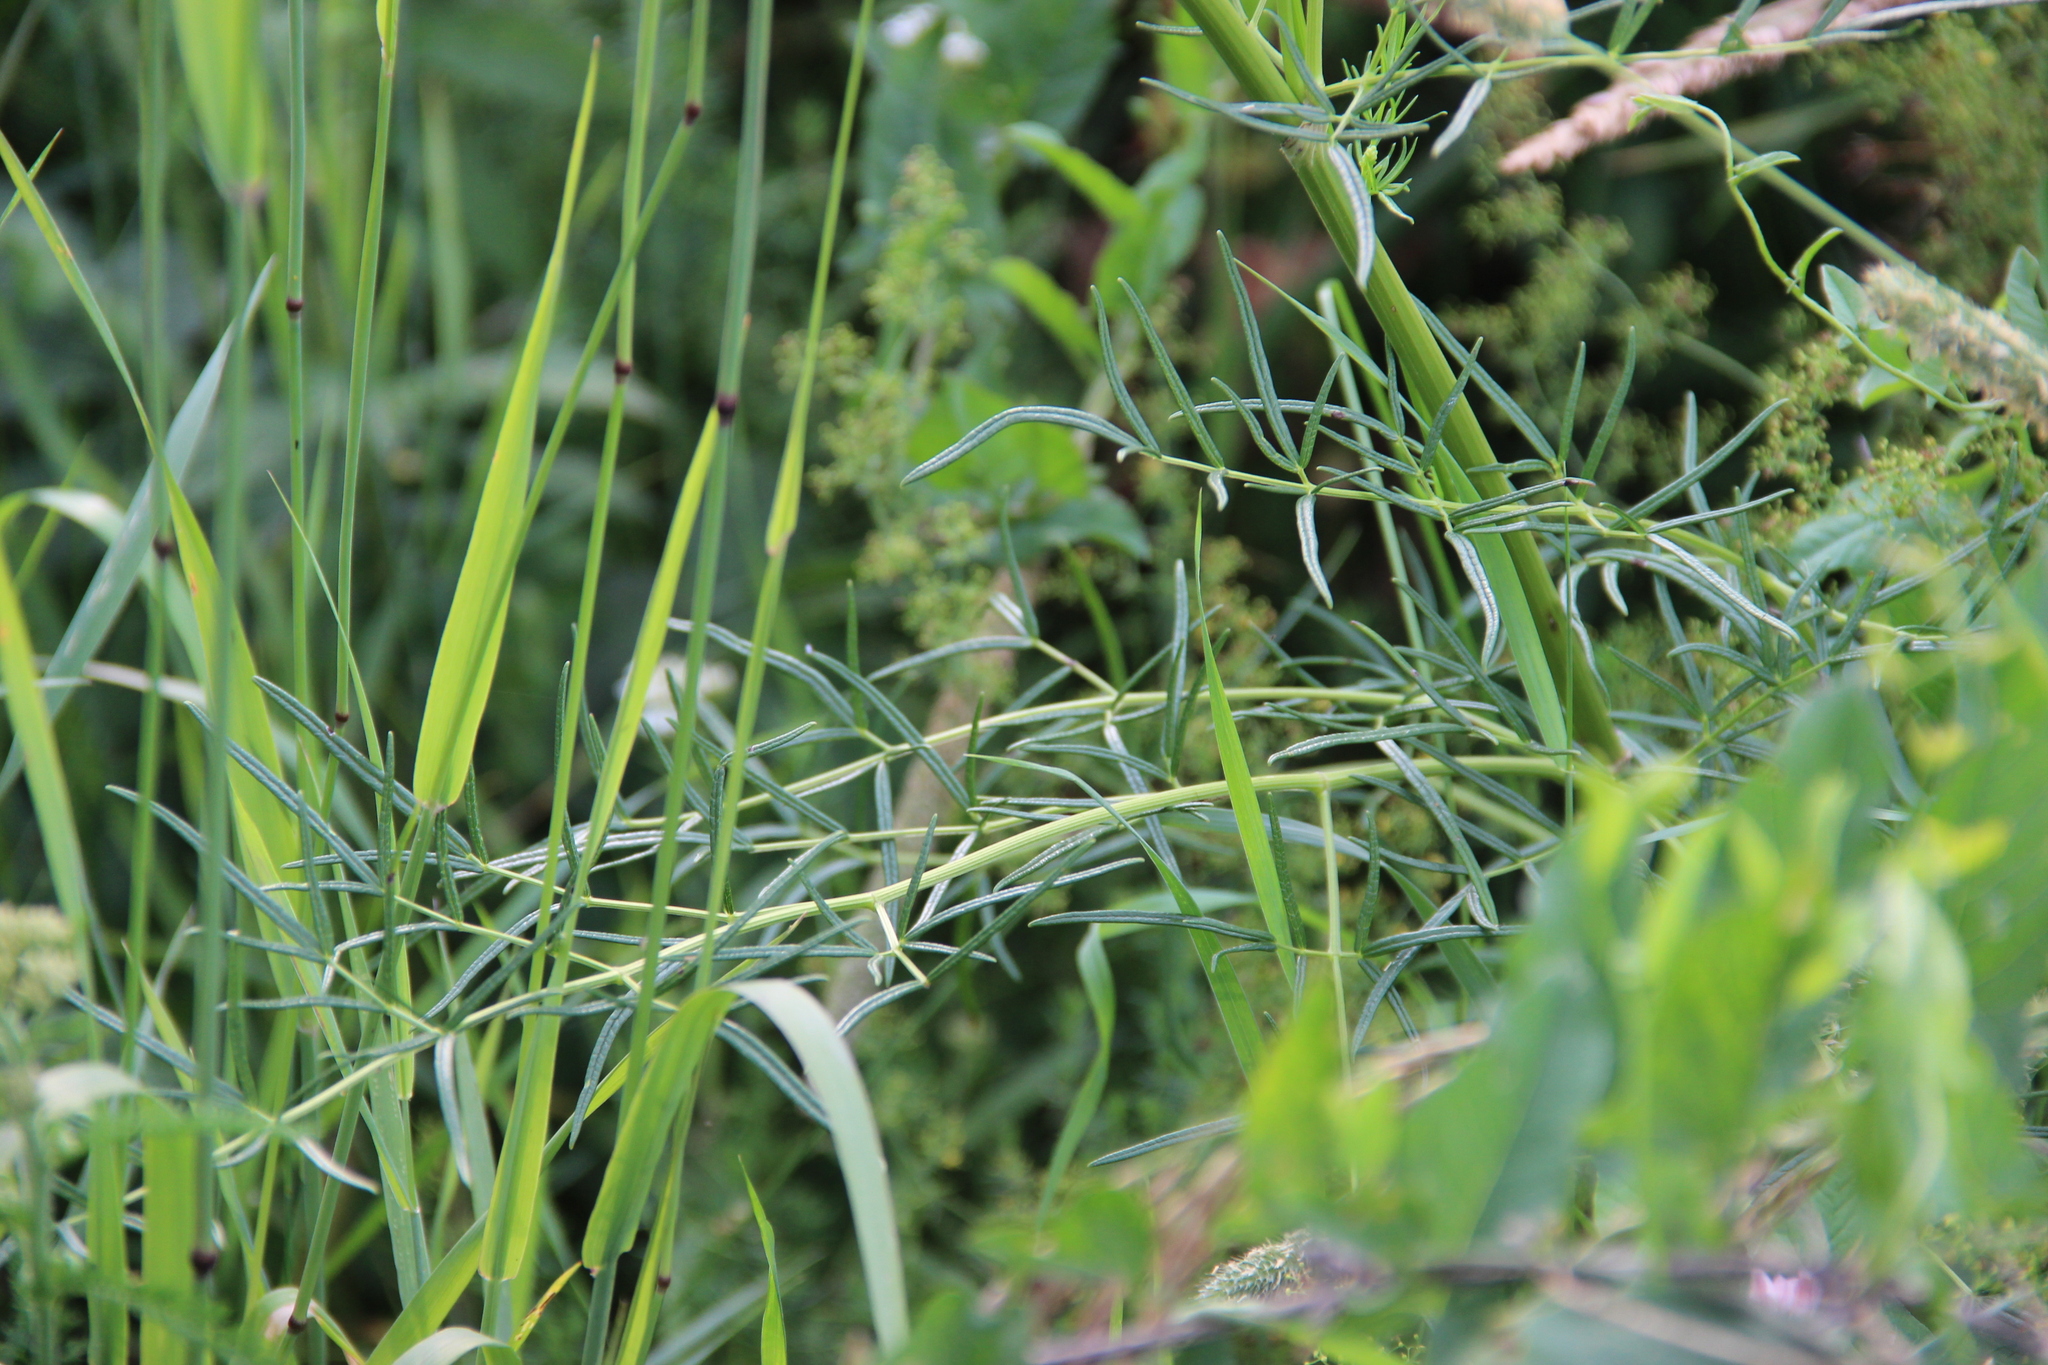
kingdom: Plantae
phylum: Tracheophyta
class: Magnoliopsida
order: Ranunculales
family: Ranunculaceae
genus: Thalictrum
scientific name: Thalictrum lucidum
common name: Shining meadow-rue
